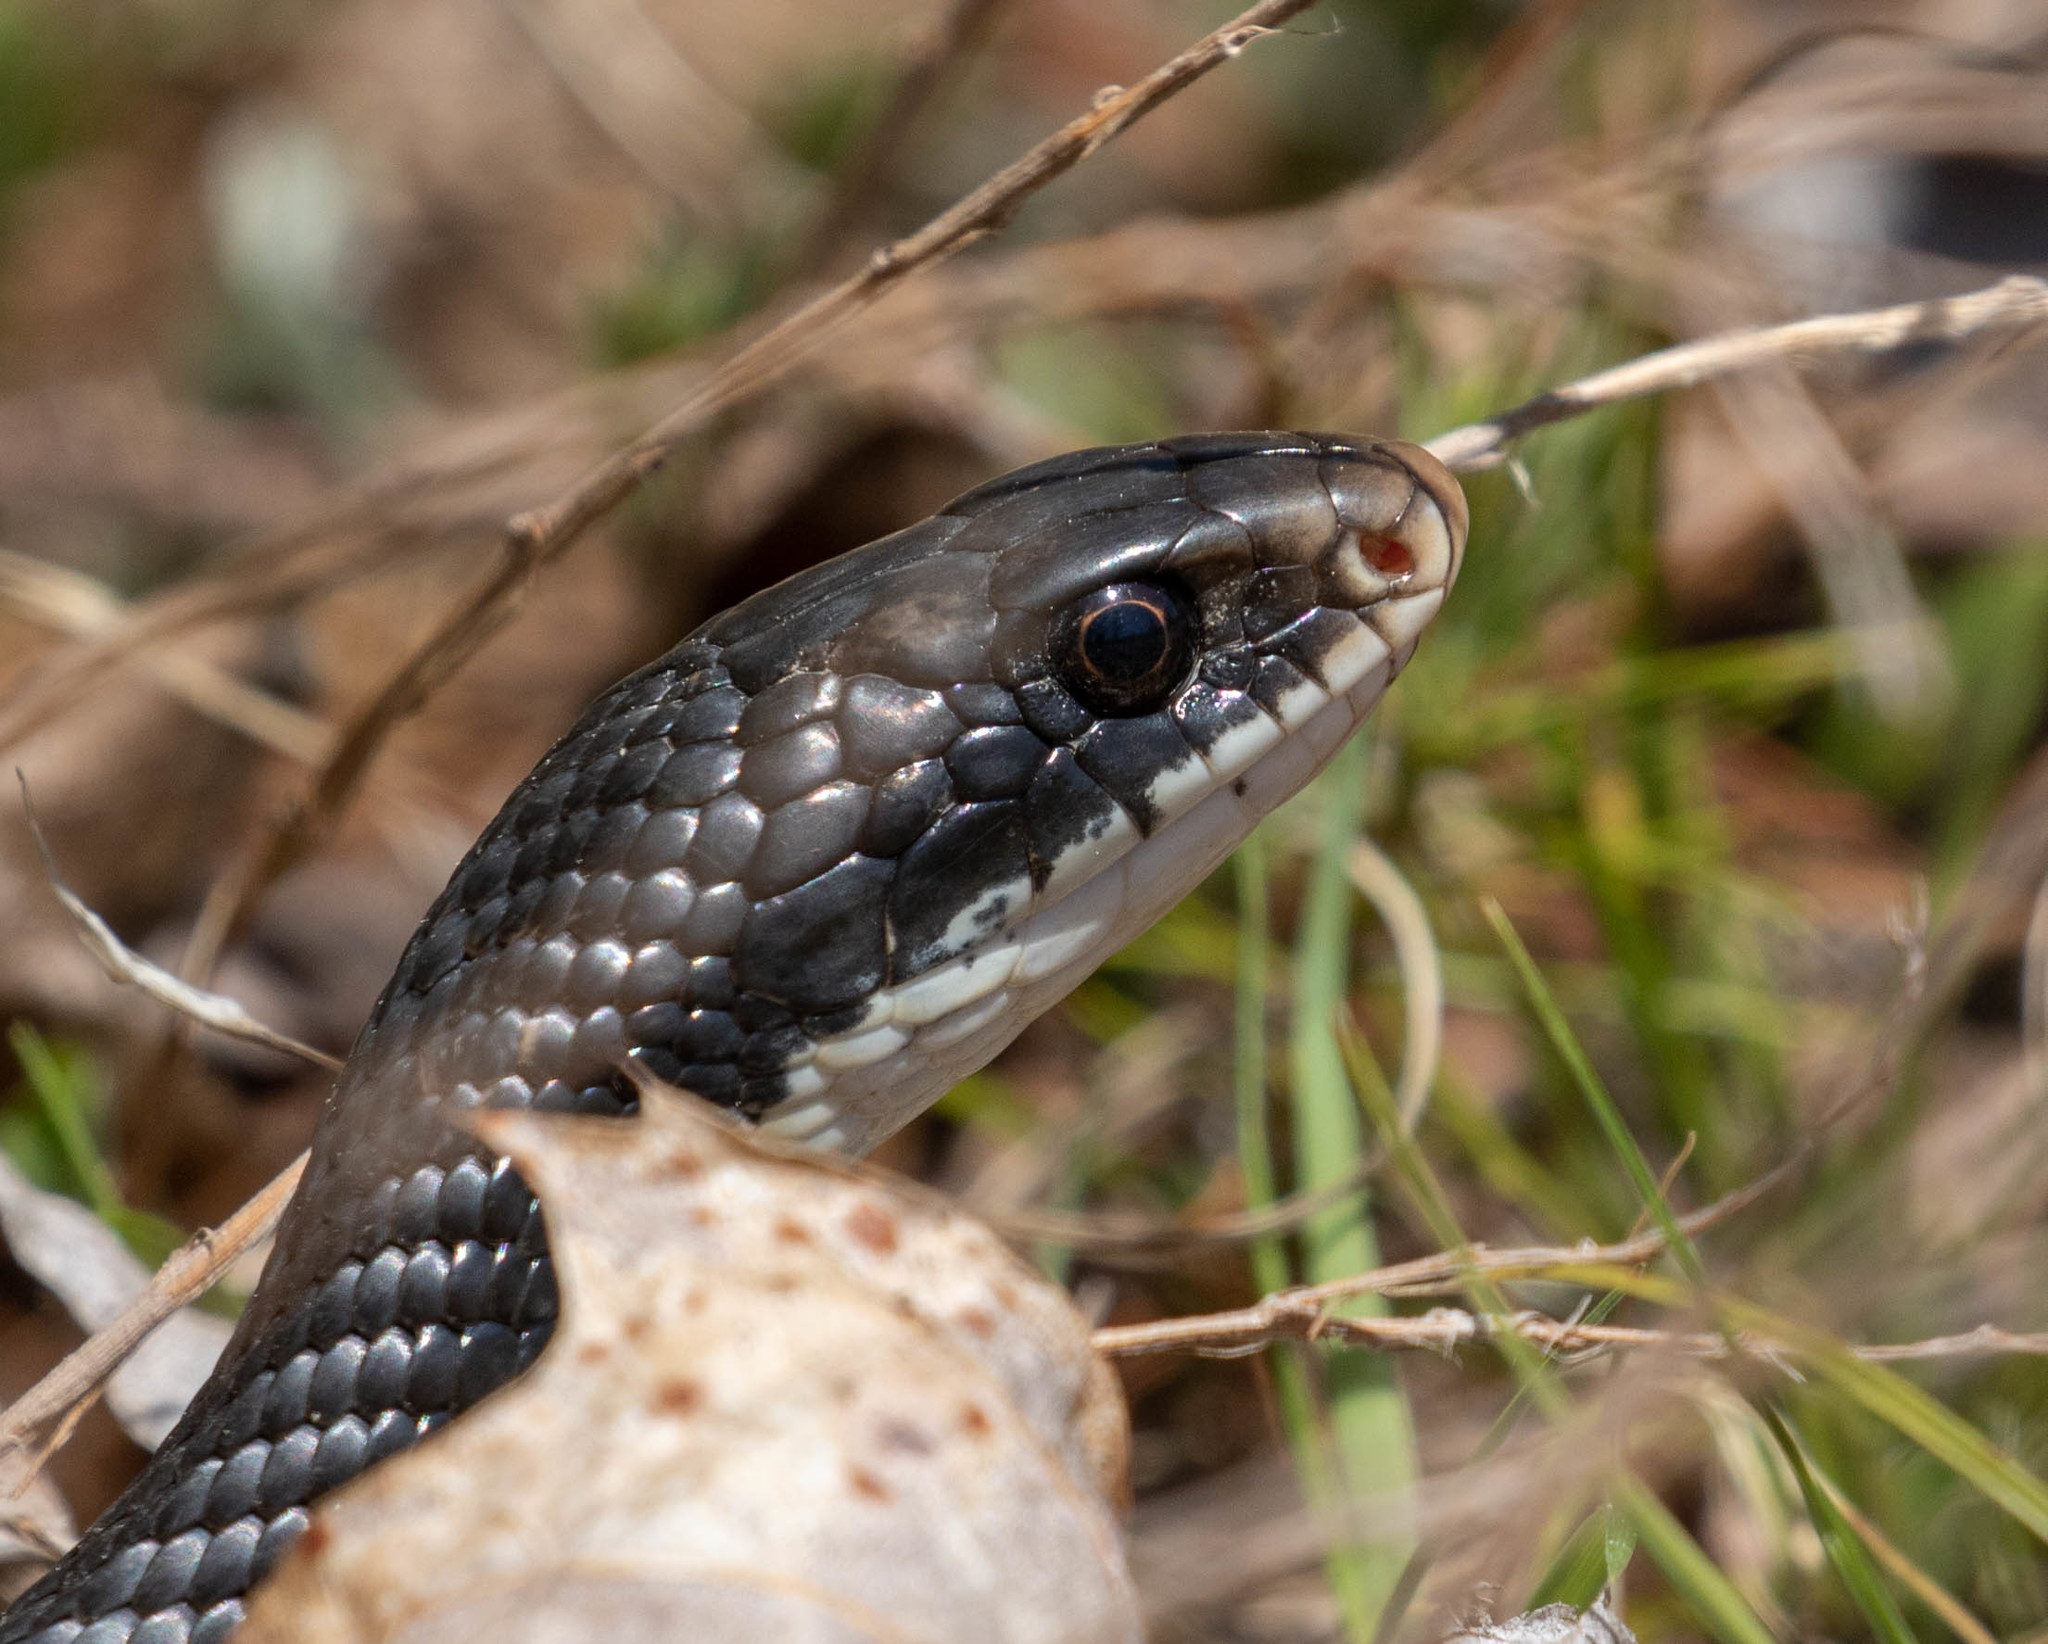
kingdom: Animalia
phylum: Chordata
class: Squamata
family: Colubridae
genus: Coluber
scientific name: Coluber constrictor
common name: Eastern racer
